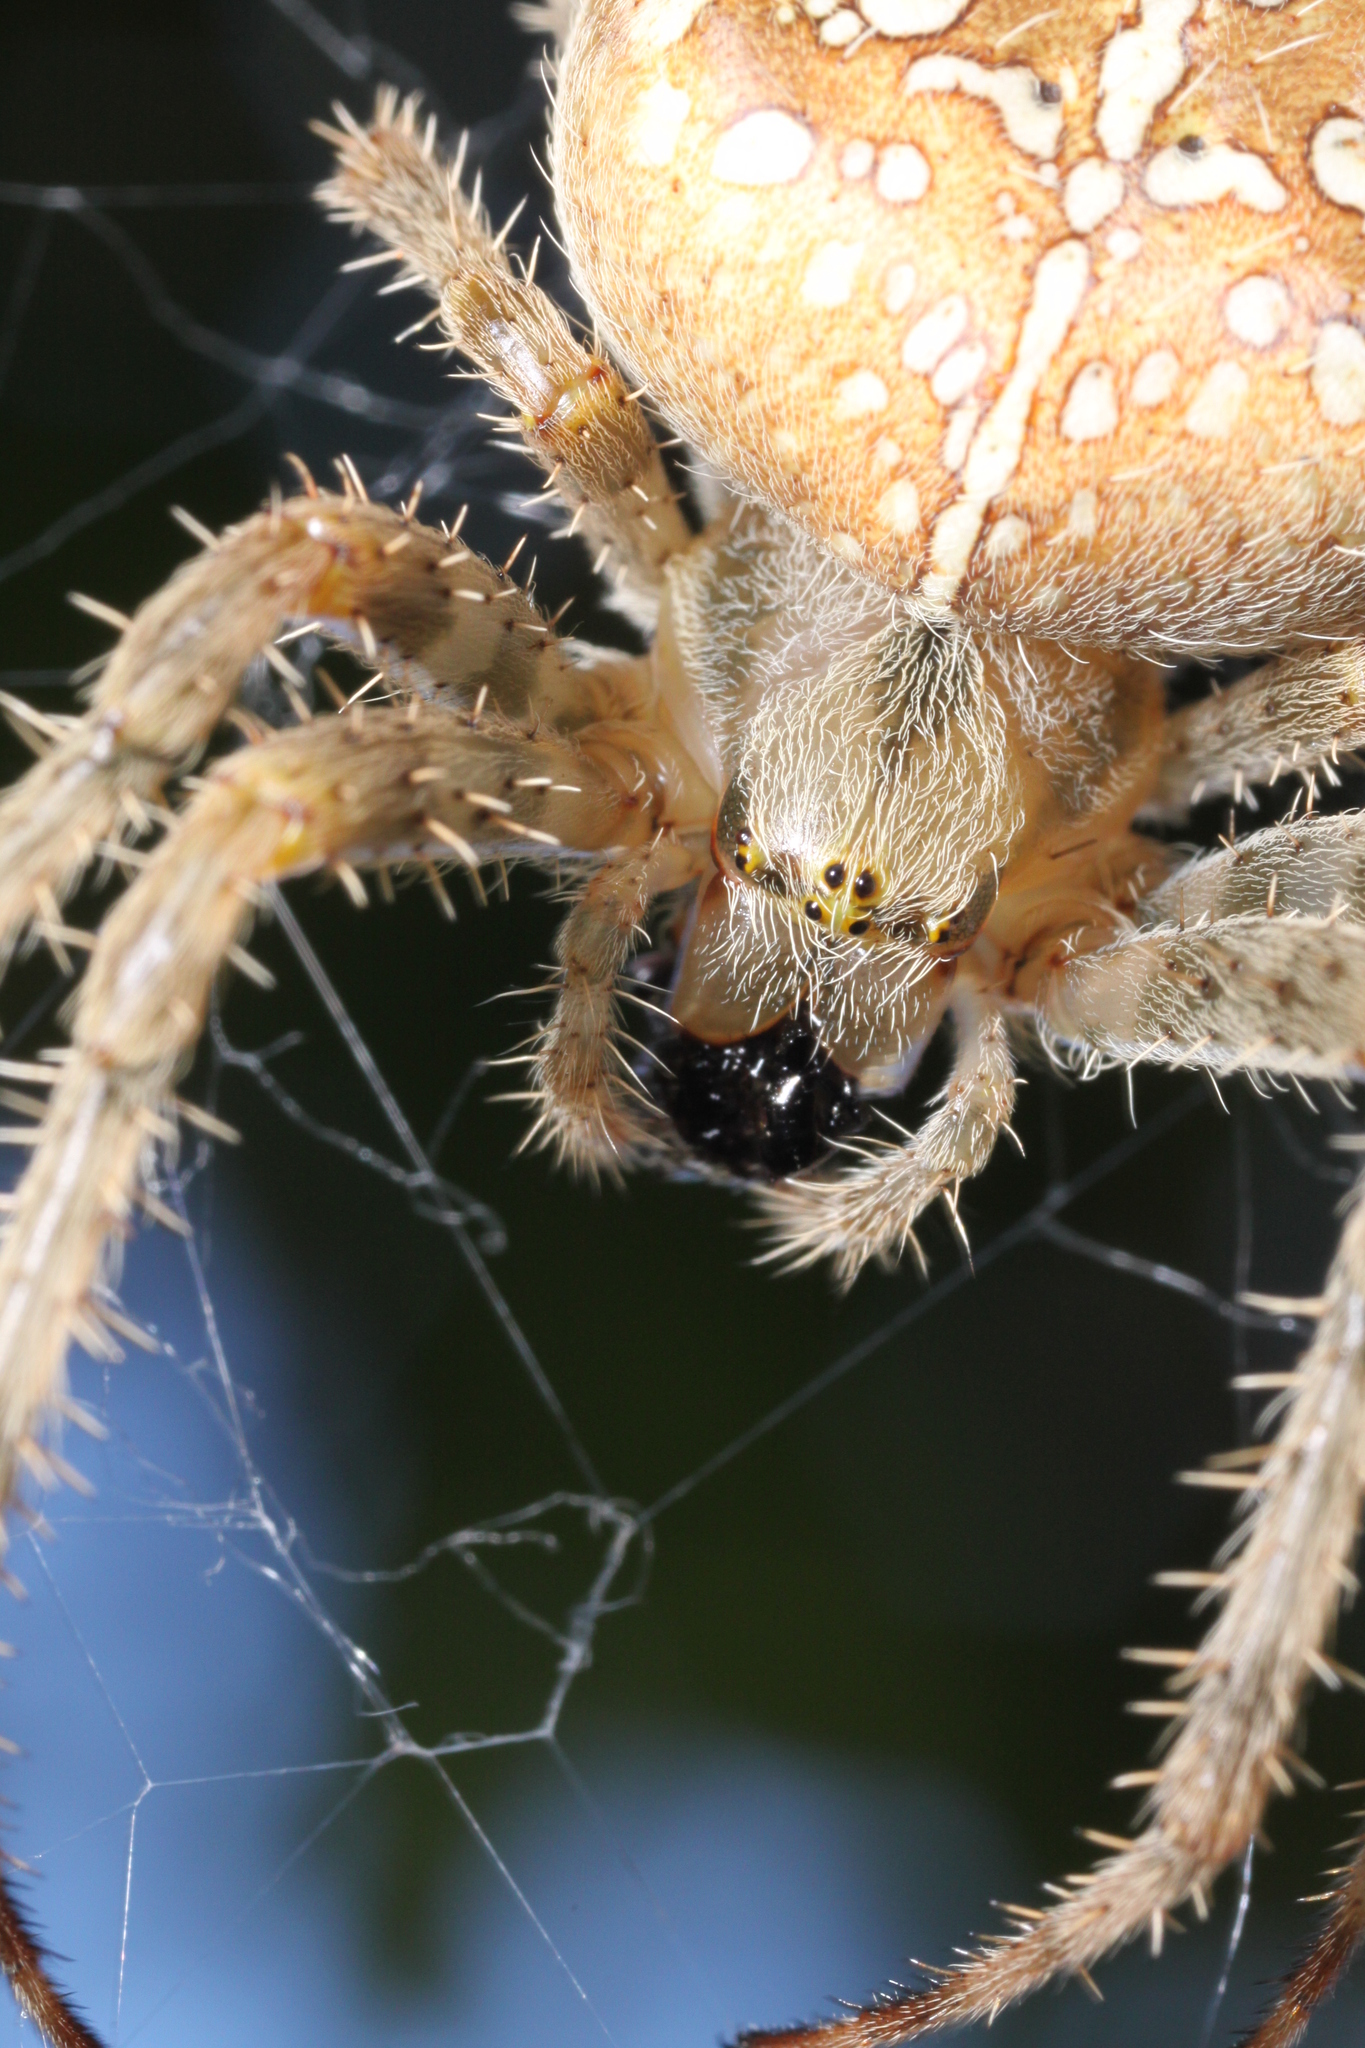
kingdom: Animalia
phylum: Arthropoda
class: Arachnida
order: Araneae
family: Araneidae
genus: Araneus
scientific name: Araneus diadematus
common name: Cross orbweaver
